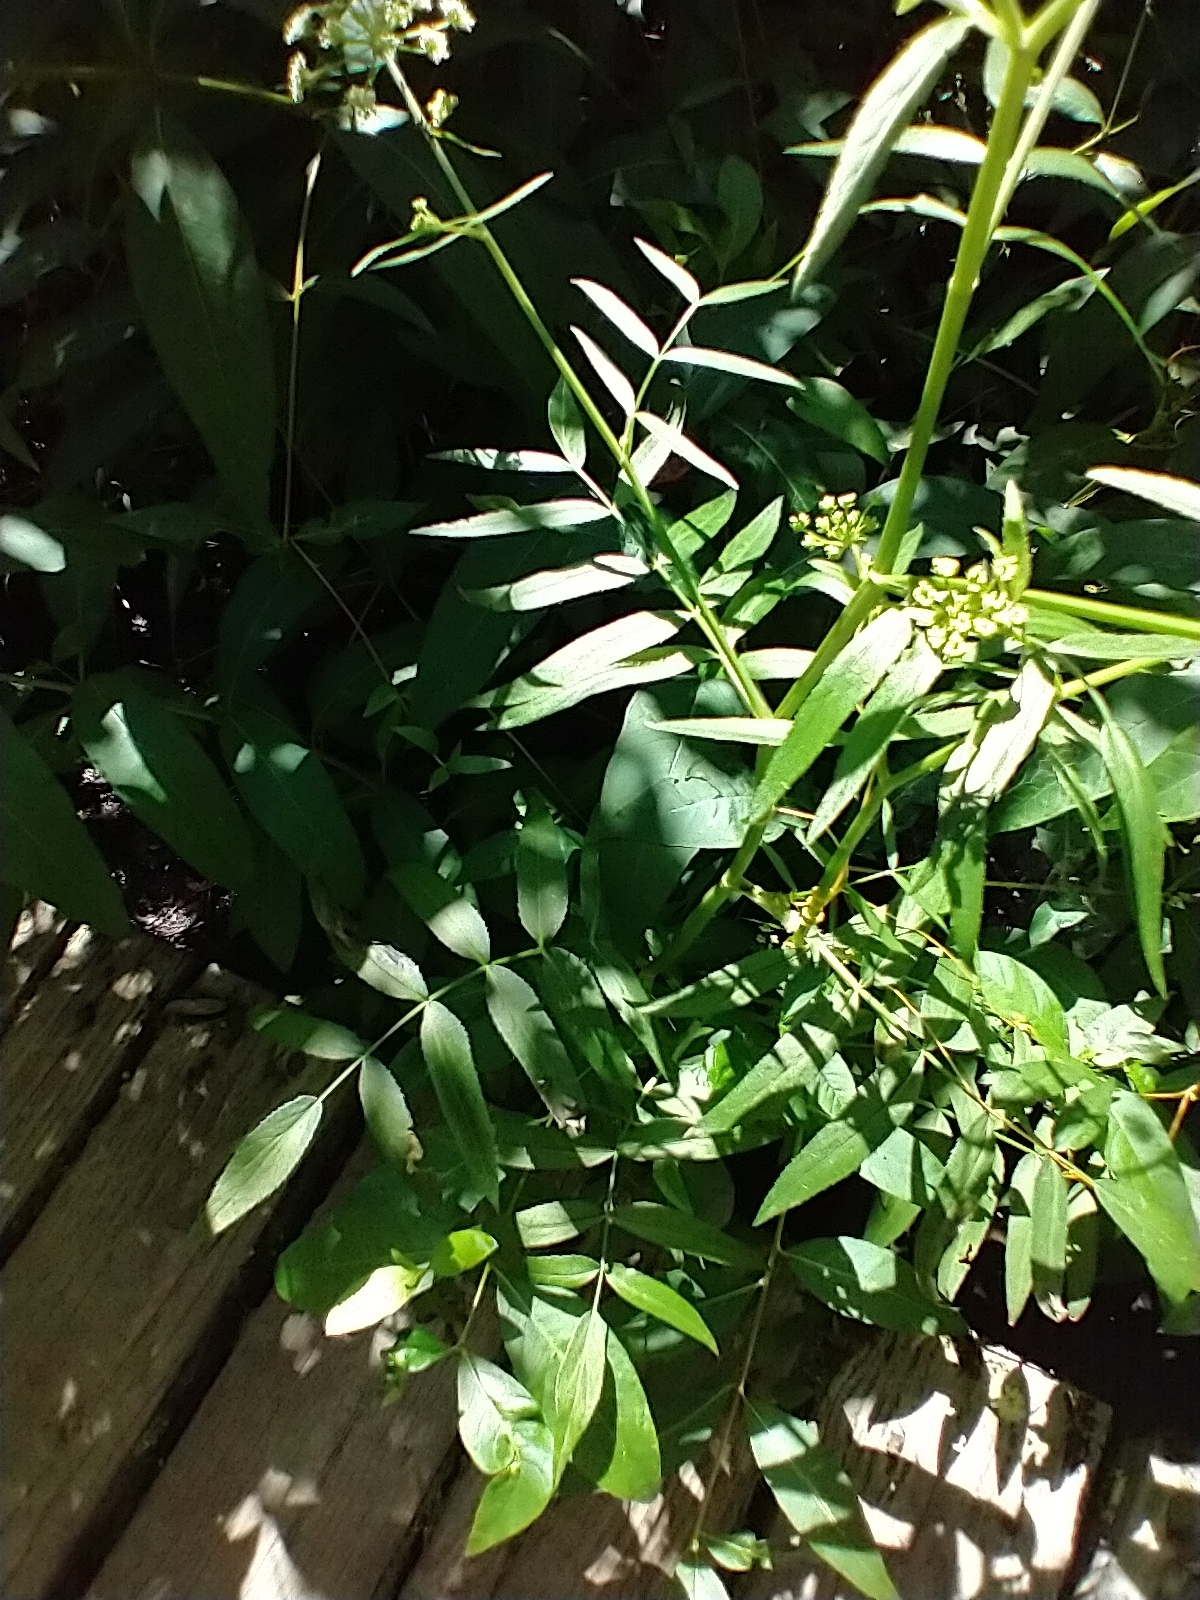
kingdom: Plantae
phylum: Tracheophyta
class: Magnoliopsida
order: Apiales
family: Apiaceae
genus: Sium
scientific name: Sium suave
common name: Hemlock water-parsnip
